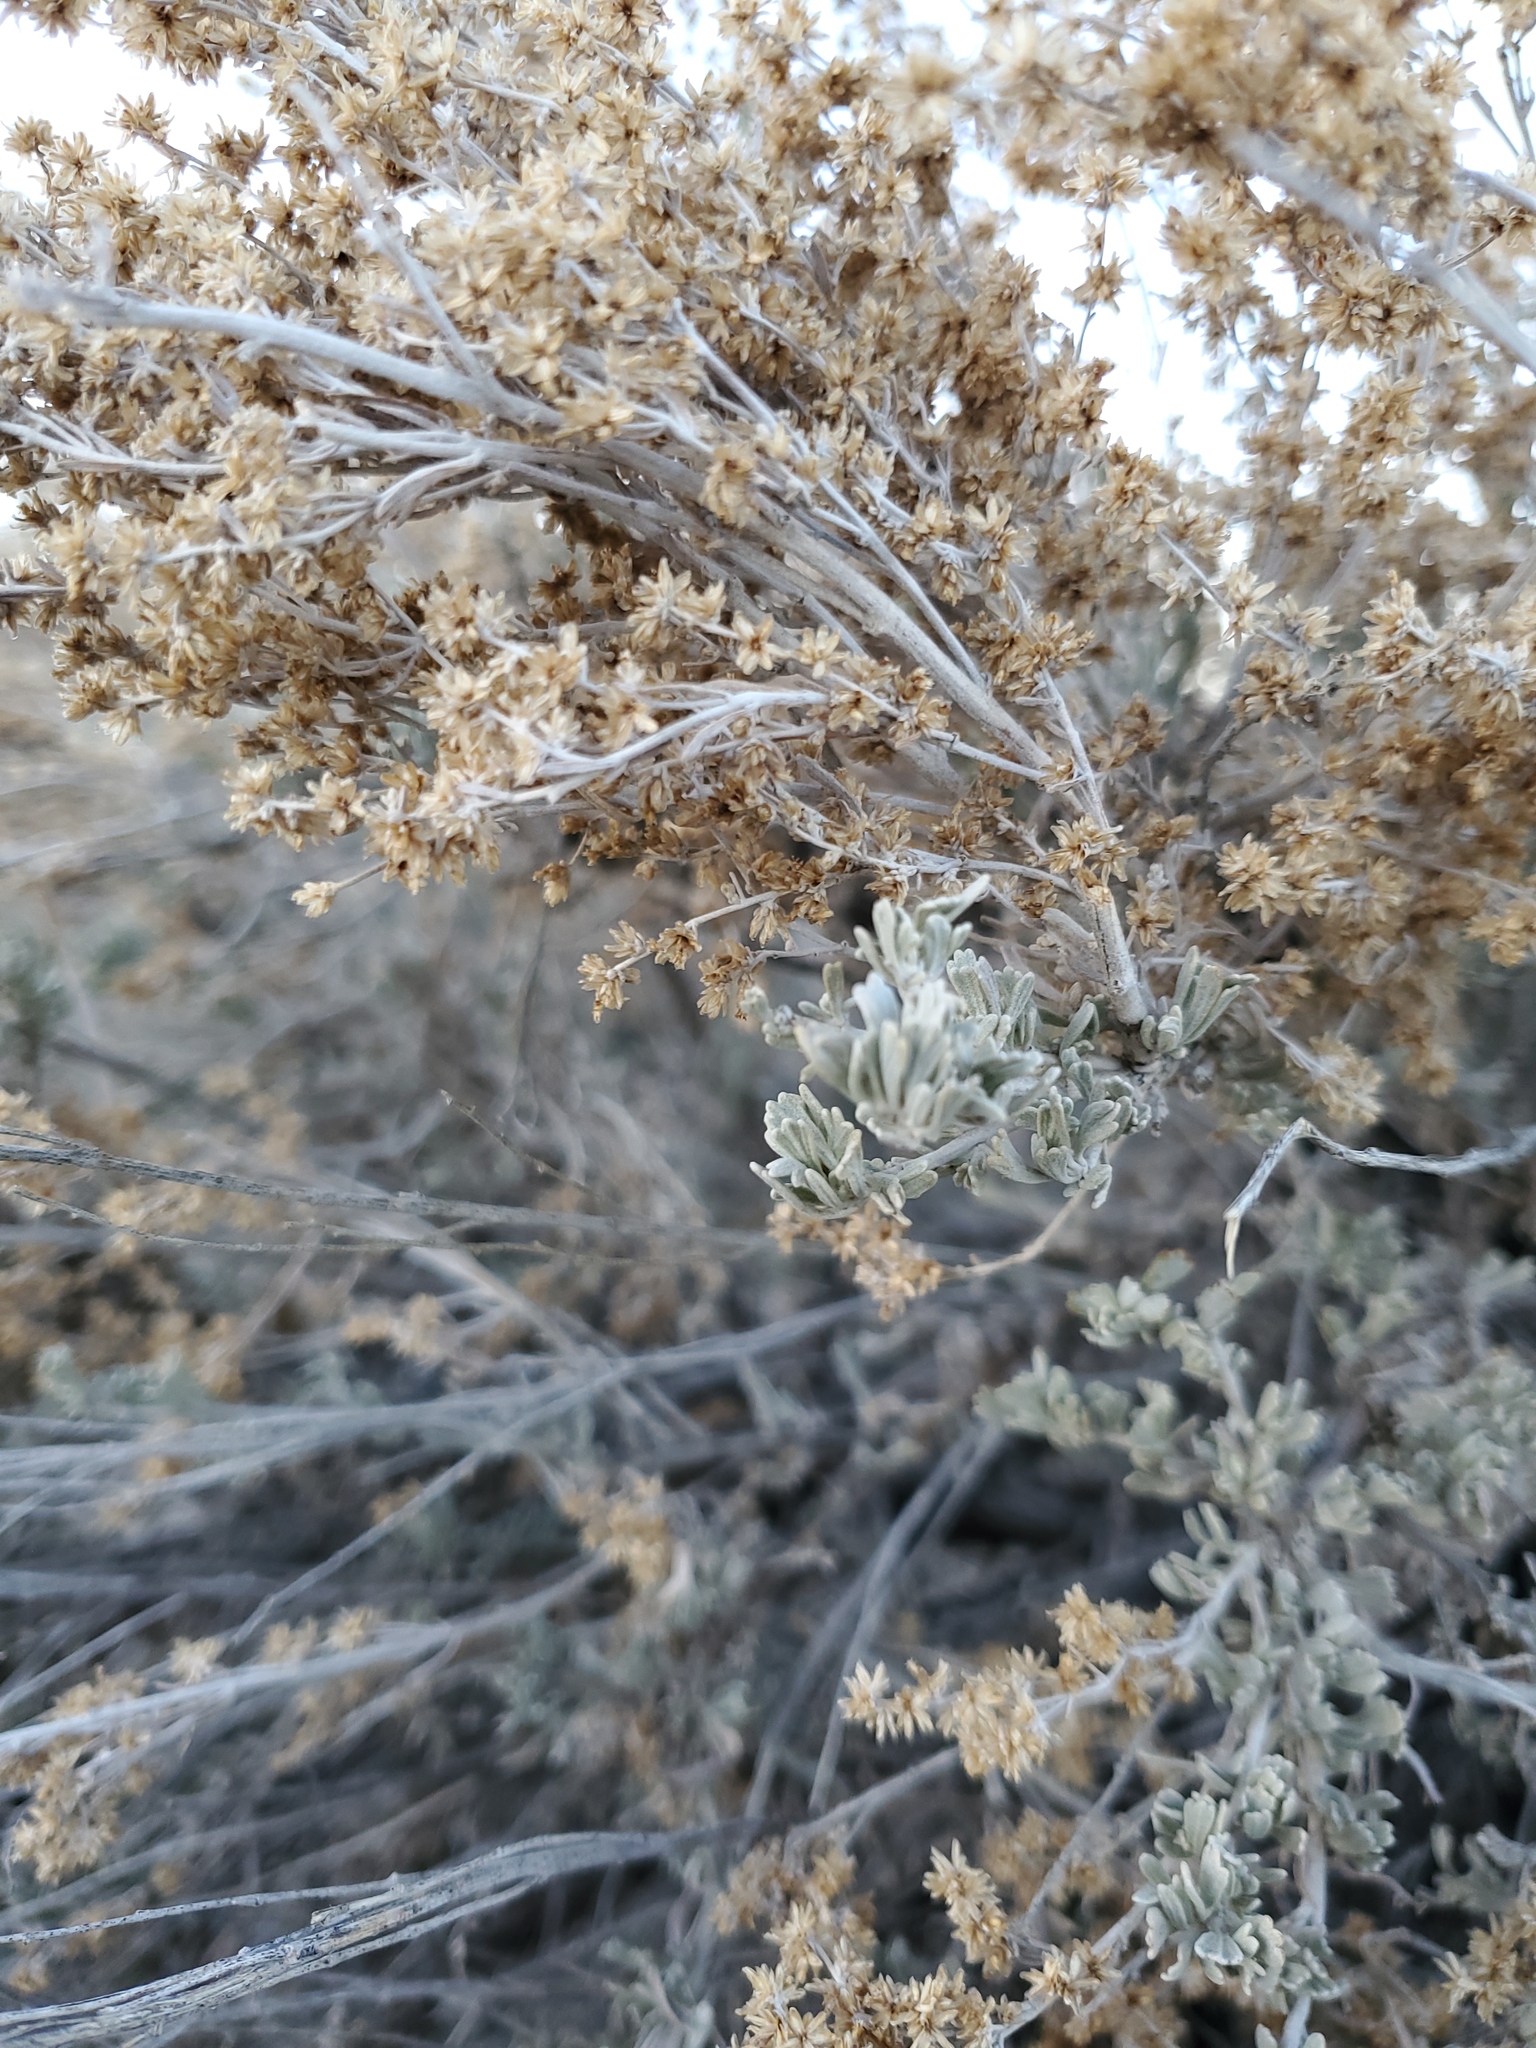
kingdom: Plantae
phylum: Tracheophyta
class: Magnoliopsida
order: Asterales
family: Asteraceae
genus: Artemisia
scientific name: Artemisia tridentata
